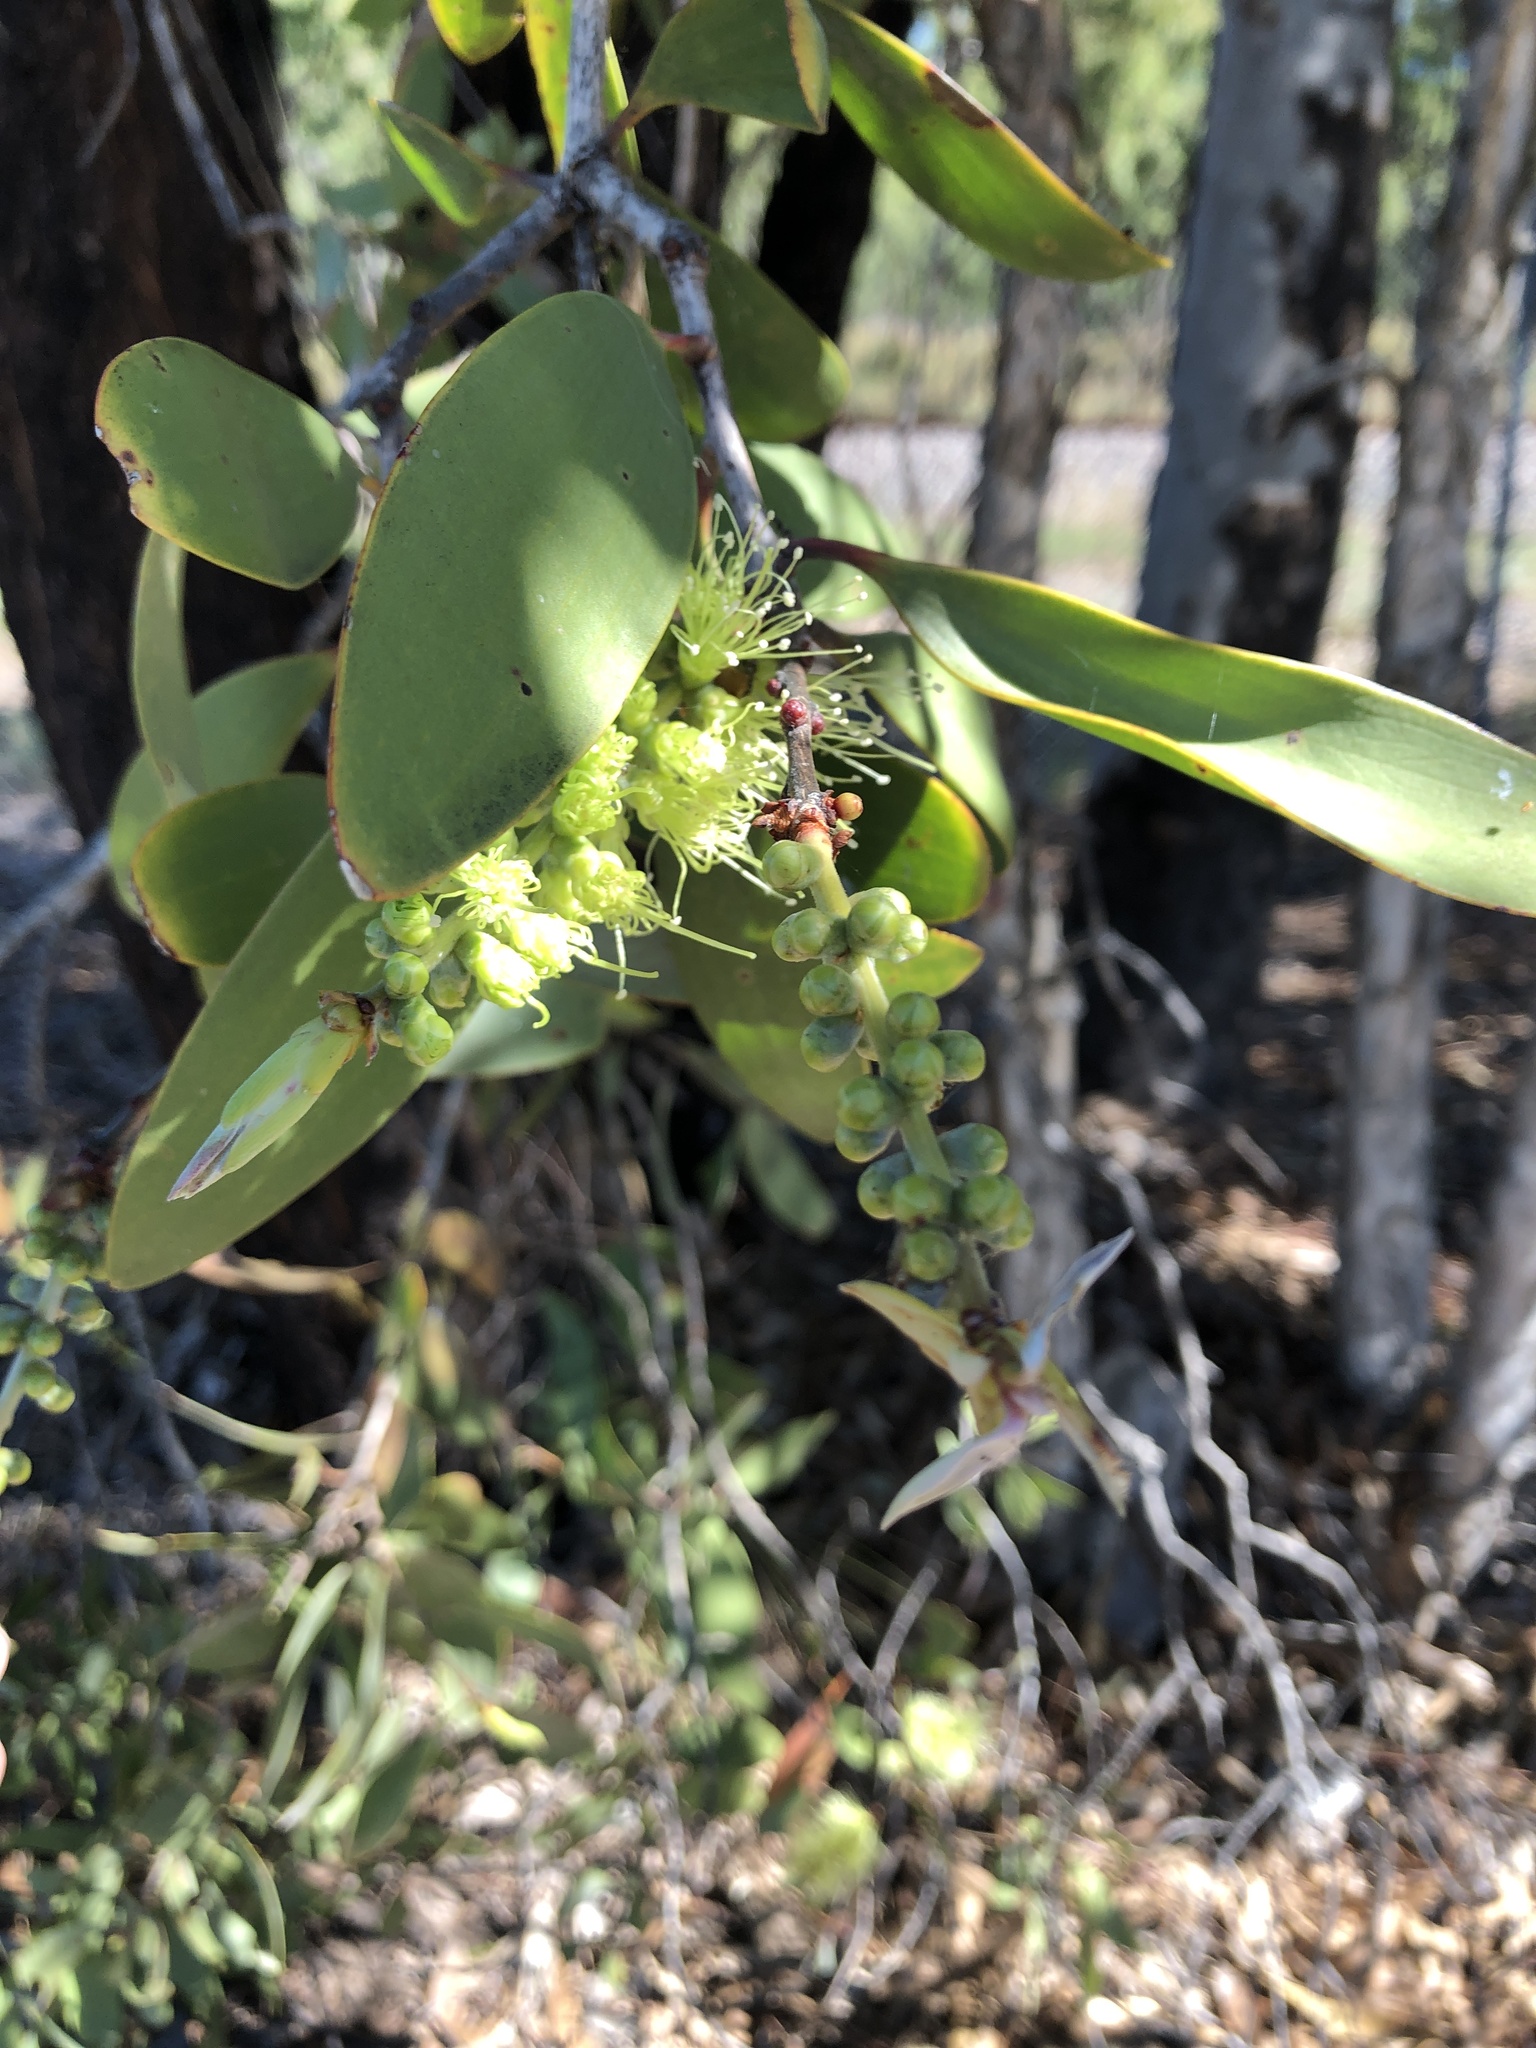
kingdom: Plantae
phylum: Tracheophyta
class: Magnoliopsida
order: Myrtales
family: Myrtaceae
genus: Melaleuca
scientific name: Melaleuca viridiflora
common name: Brown-leaved paperbark
